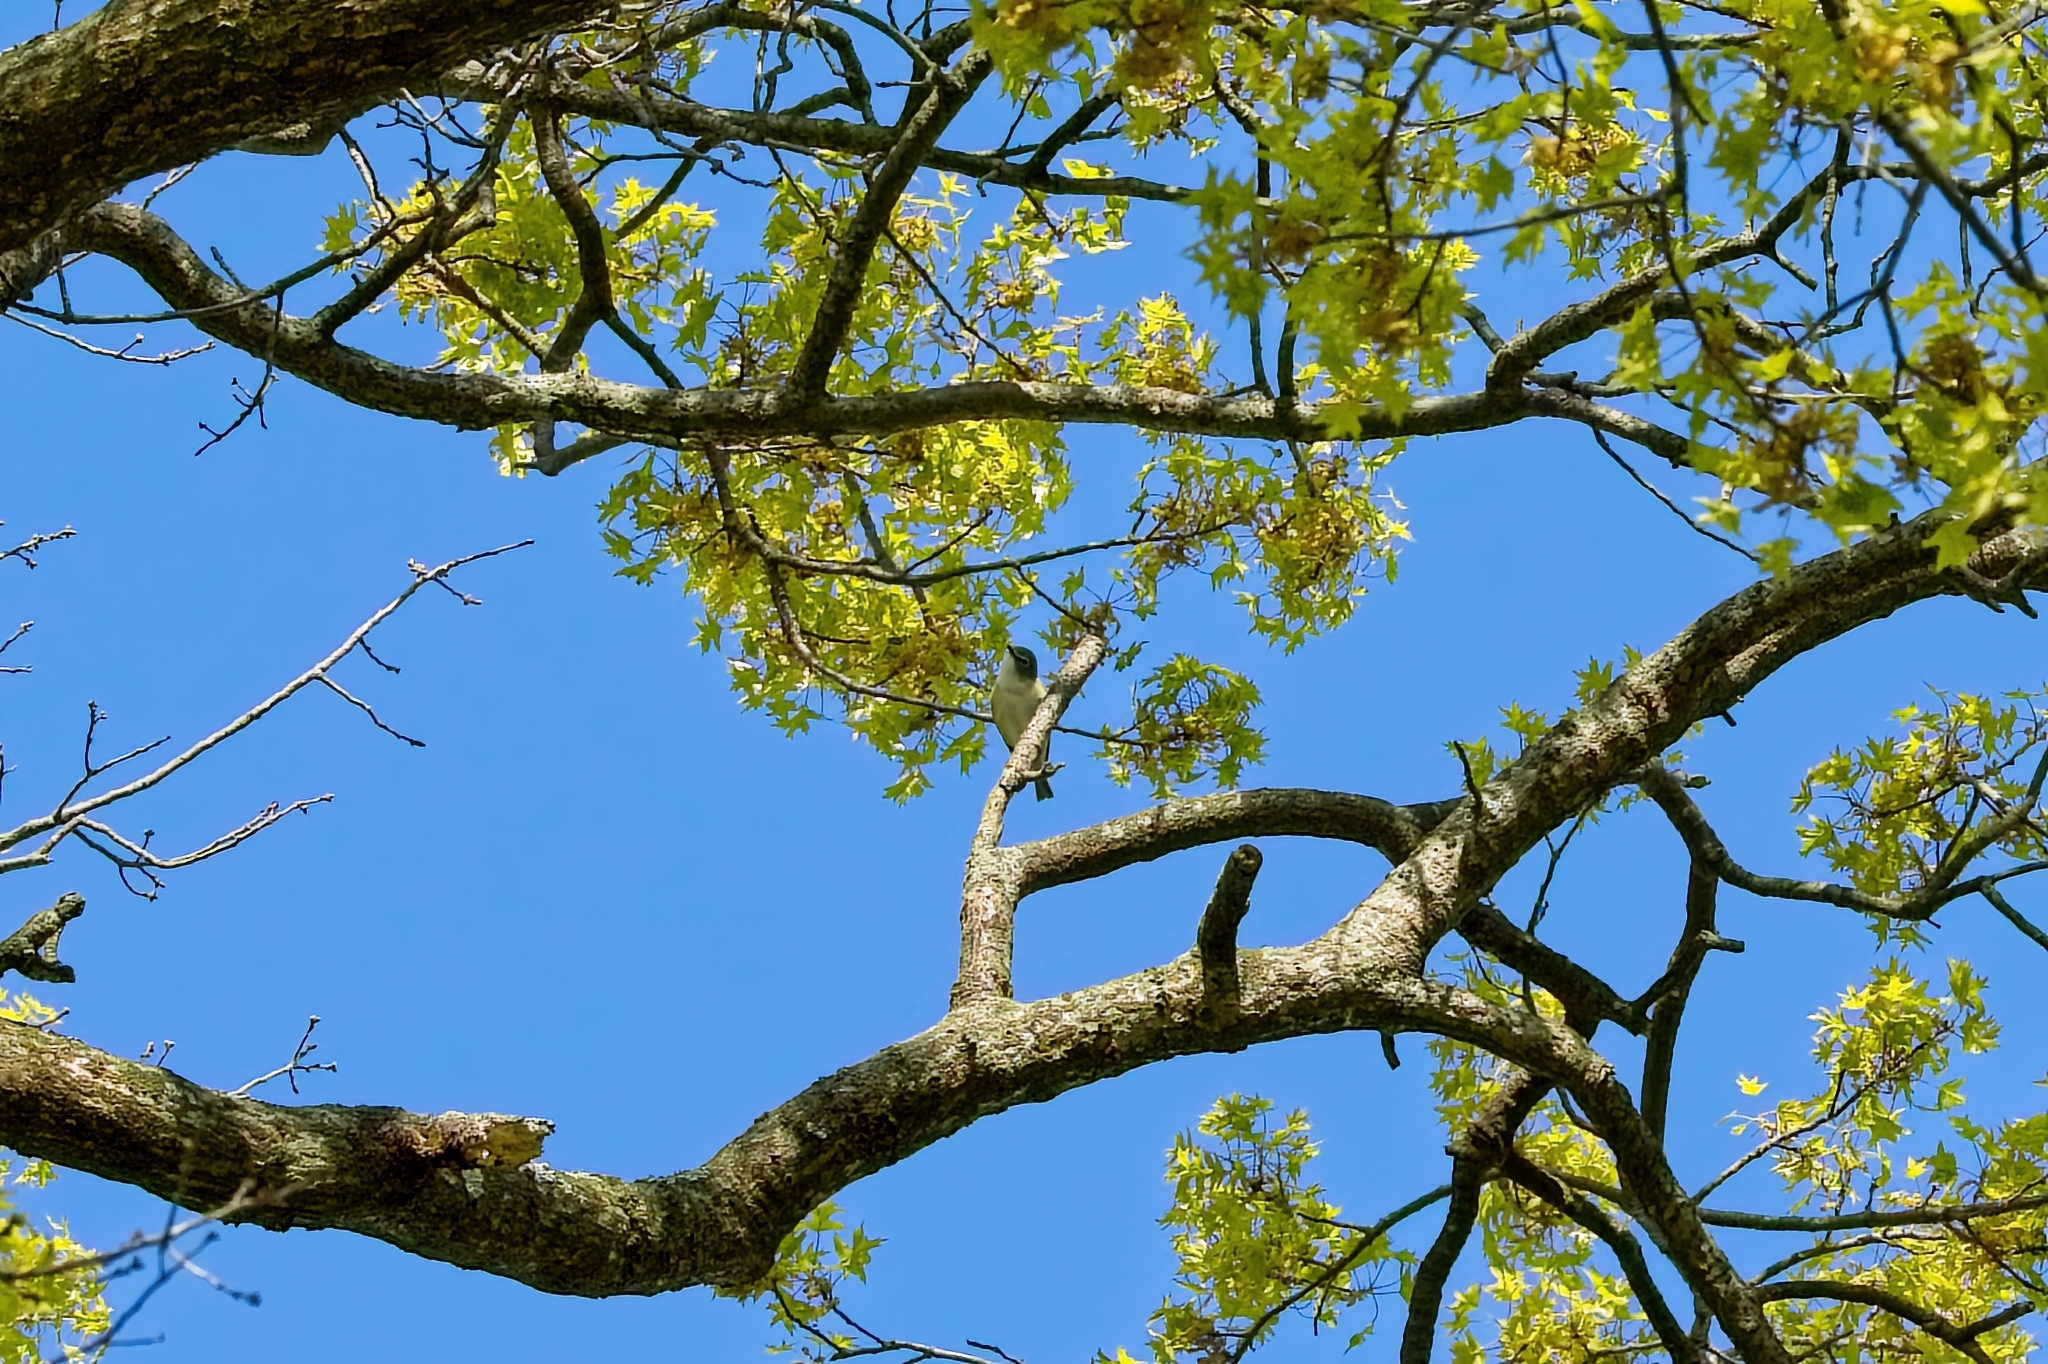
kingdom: Animalia
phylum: Chordata
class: Aves
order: Passeriformes
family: Vireonidae
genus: Vireo
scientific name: Vireo solitarius
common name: Blue-headed vireo
